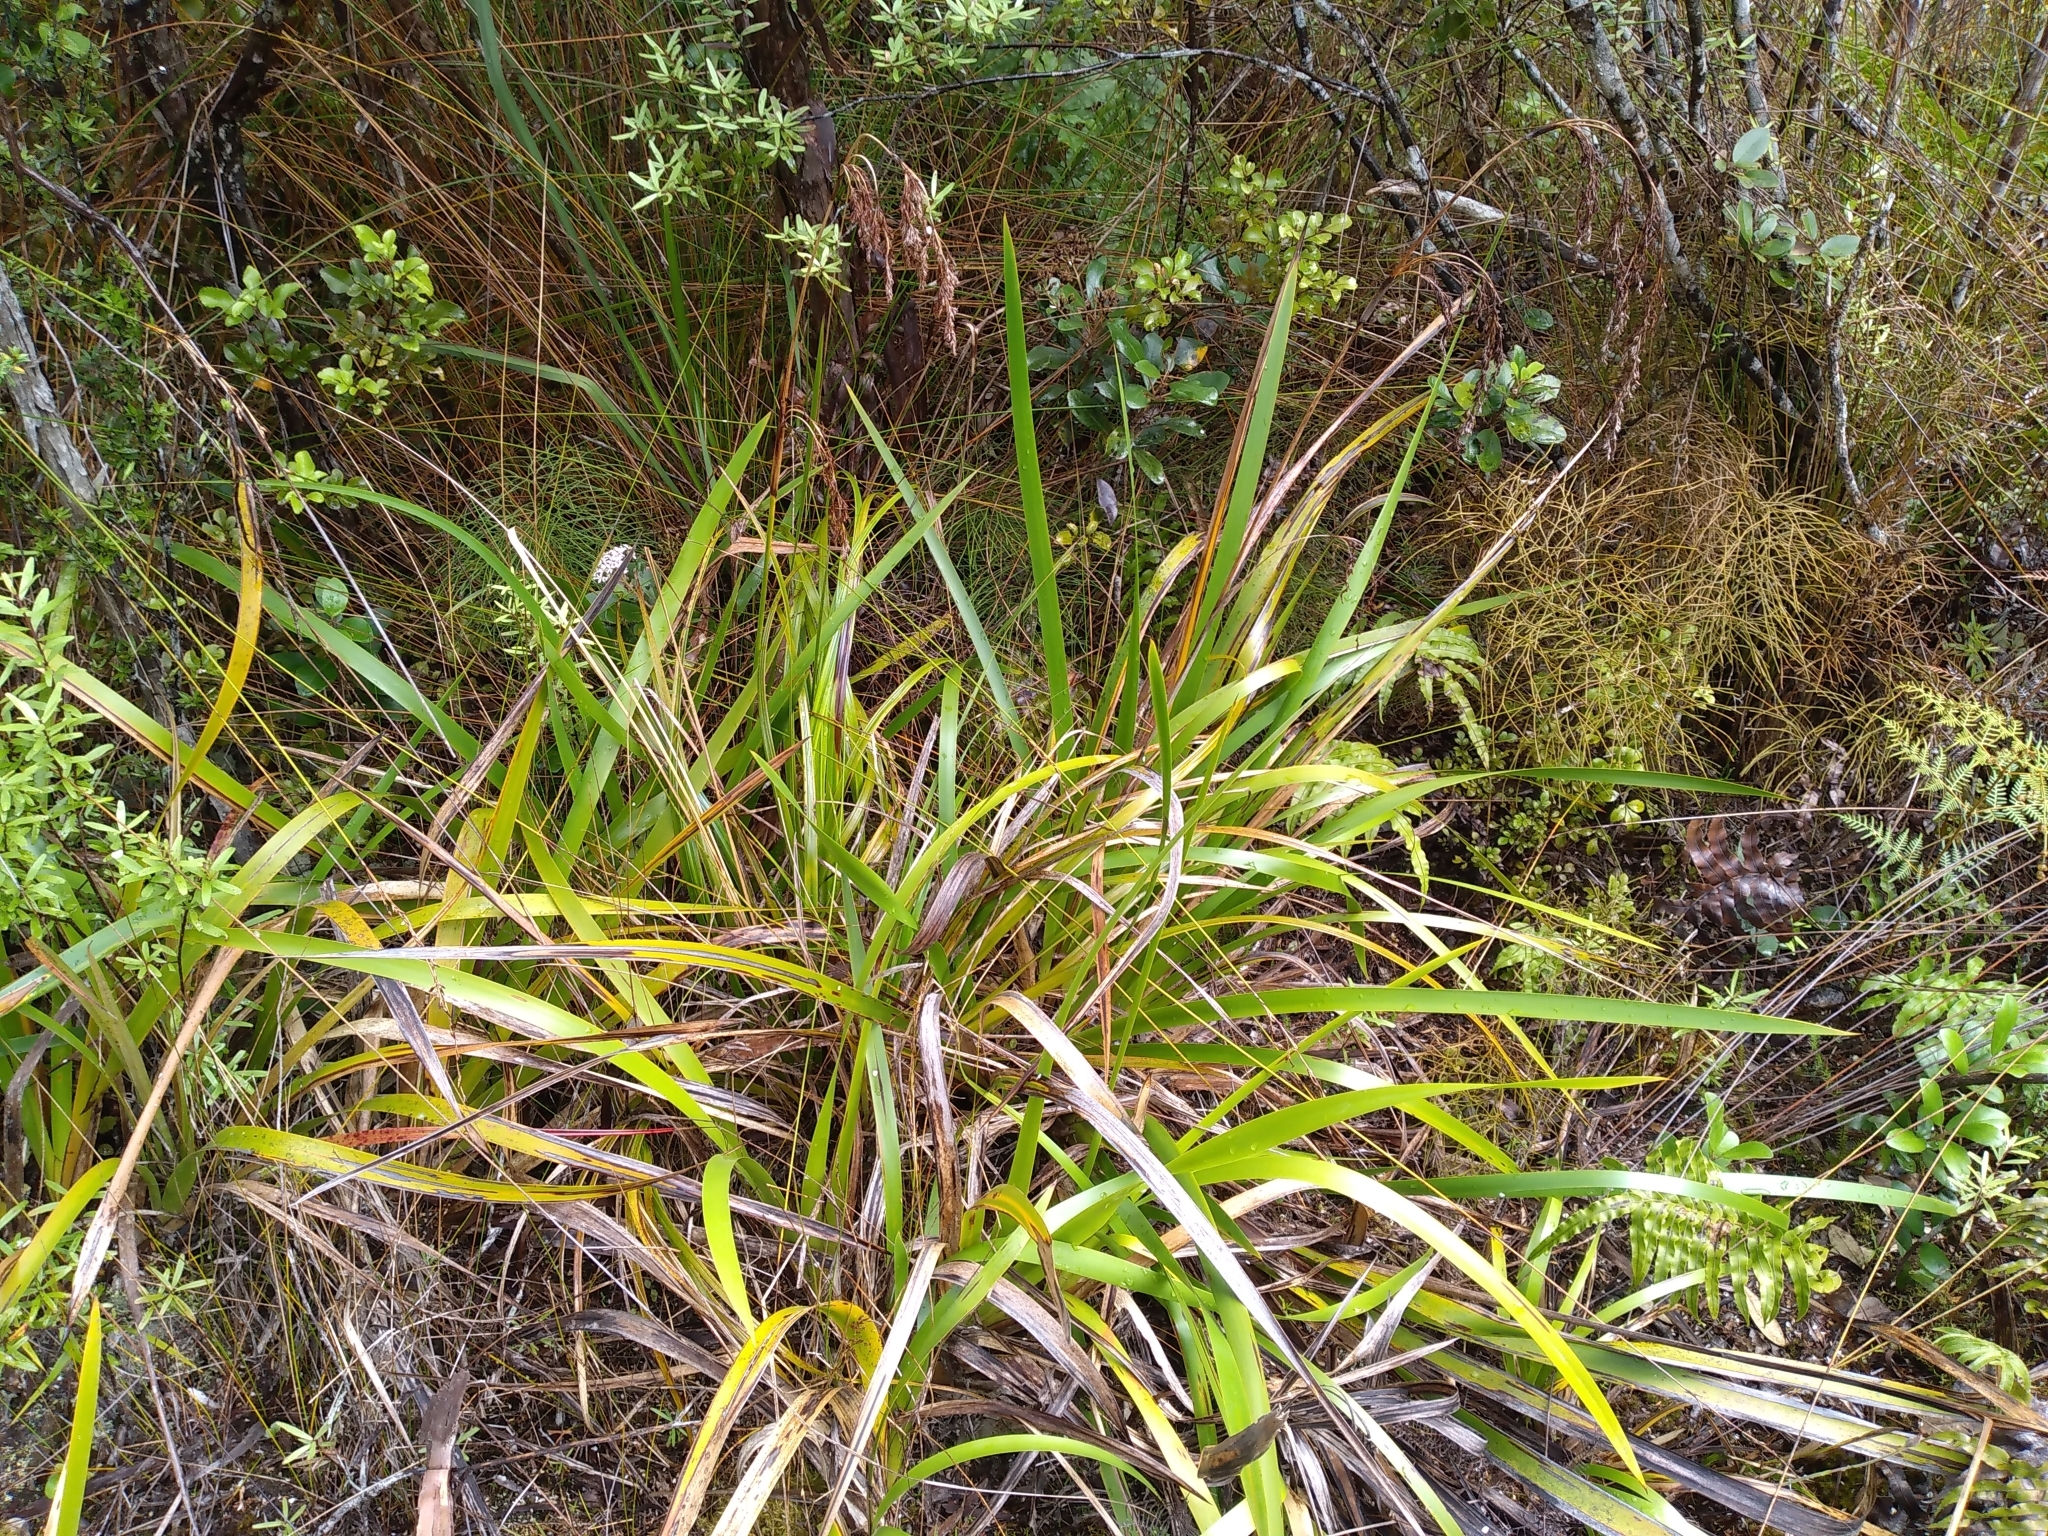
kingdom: Plantae
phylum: Tracheophyta
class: Liliopsida
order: Poales
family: Cyperaceae
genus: Machaerina
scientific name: Machaerina sinclairii
